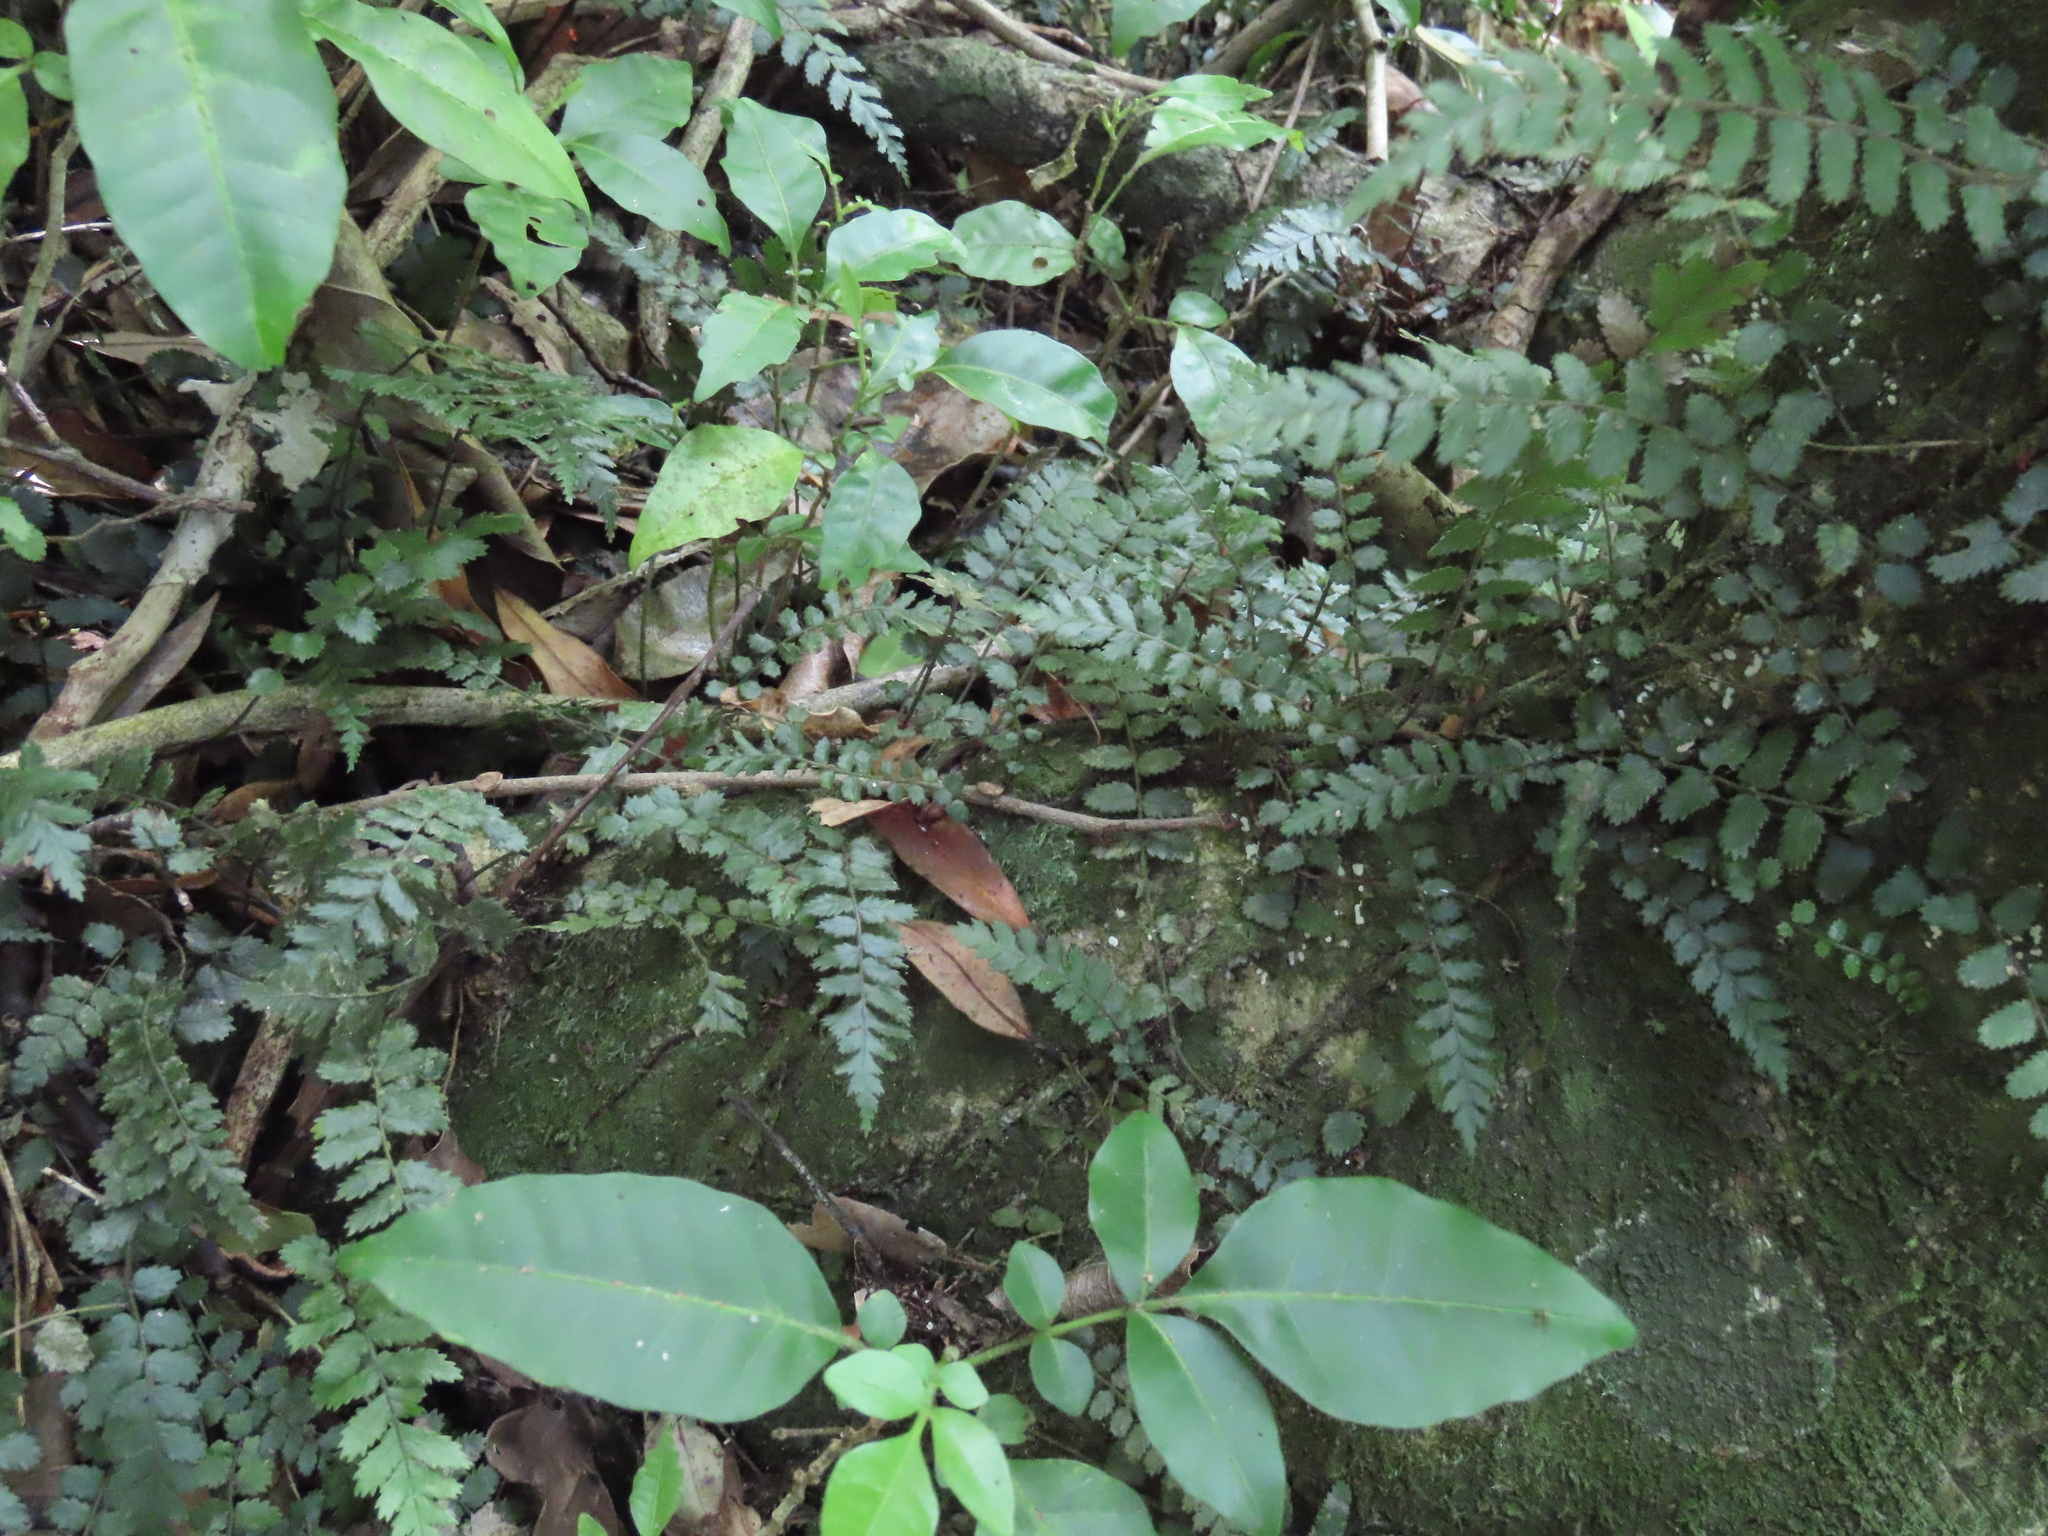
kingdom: Plantae
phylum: Tracheophyta
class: Polypodiopsida
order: Polypodiales
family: Blechnaceae
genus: Icarus
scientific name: Icarus filiformis
